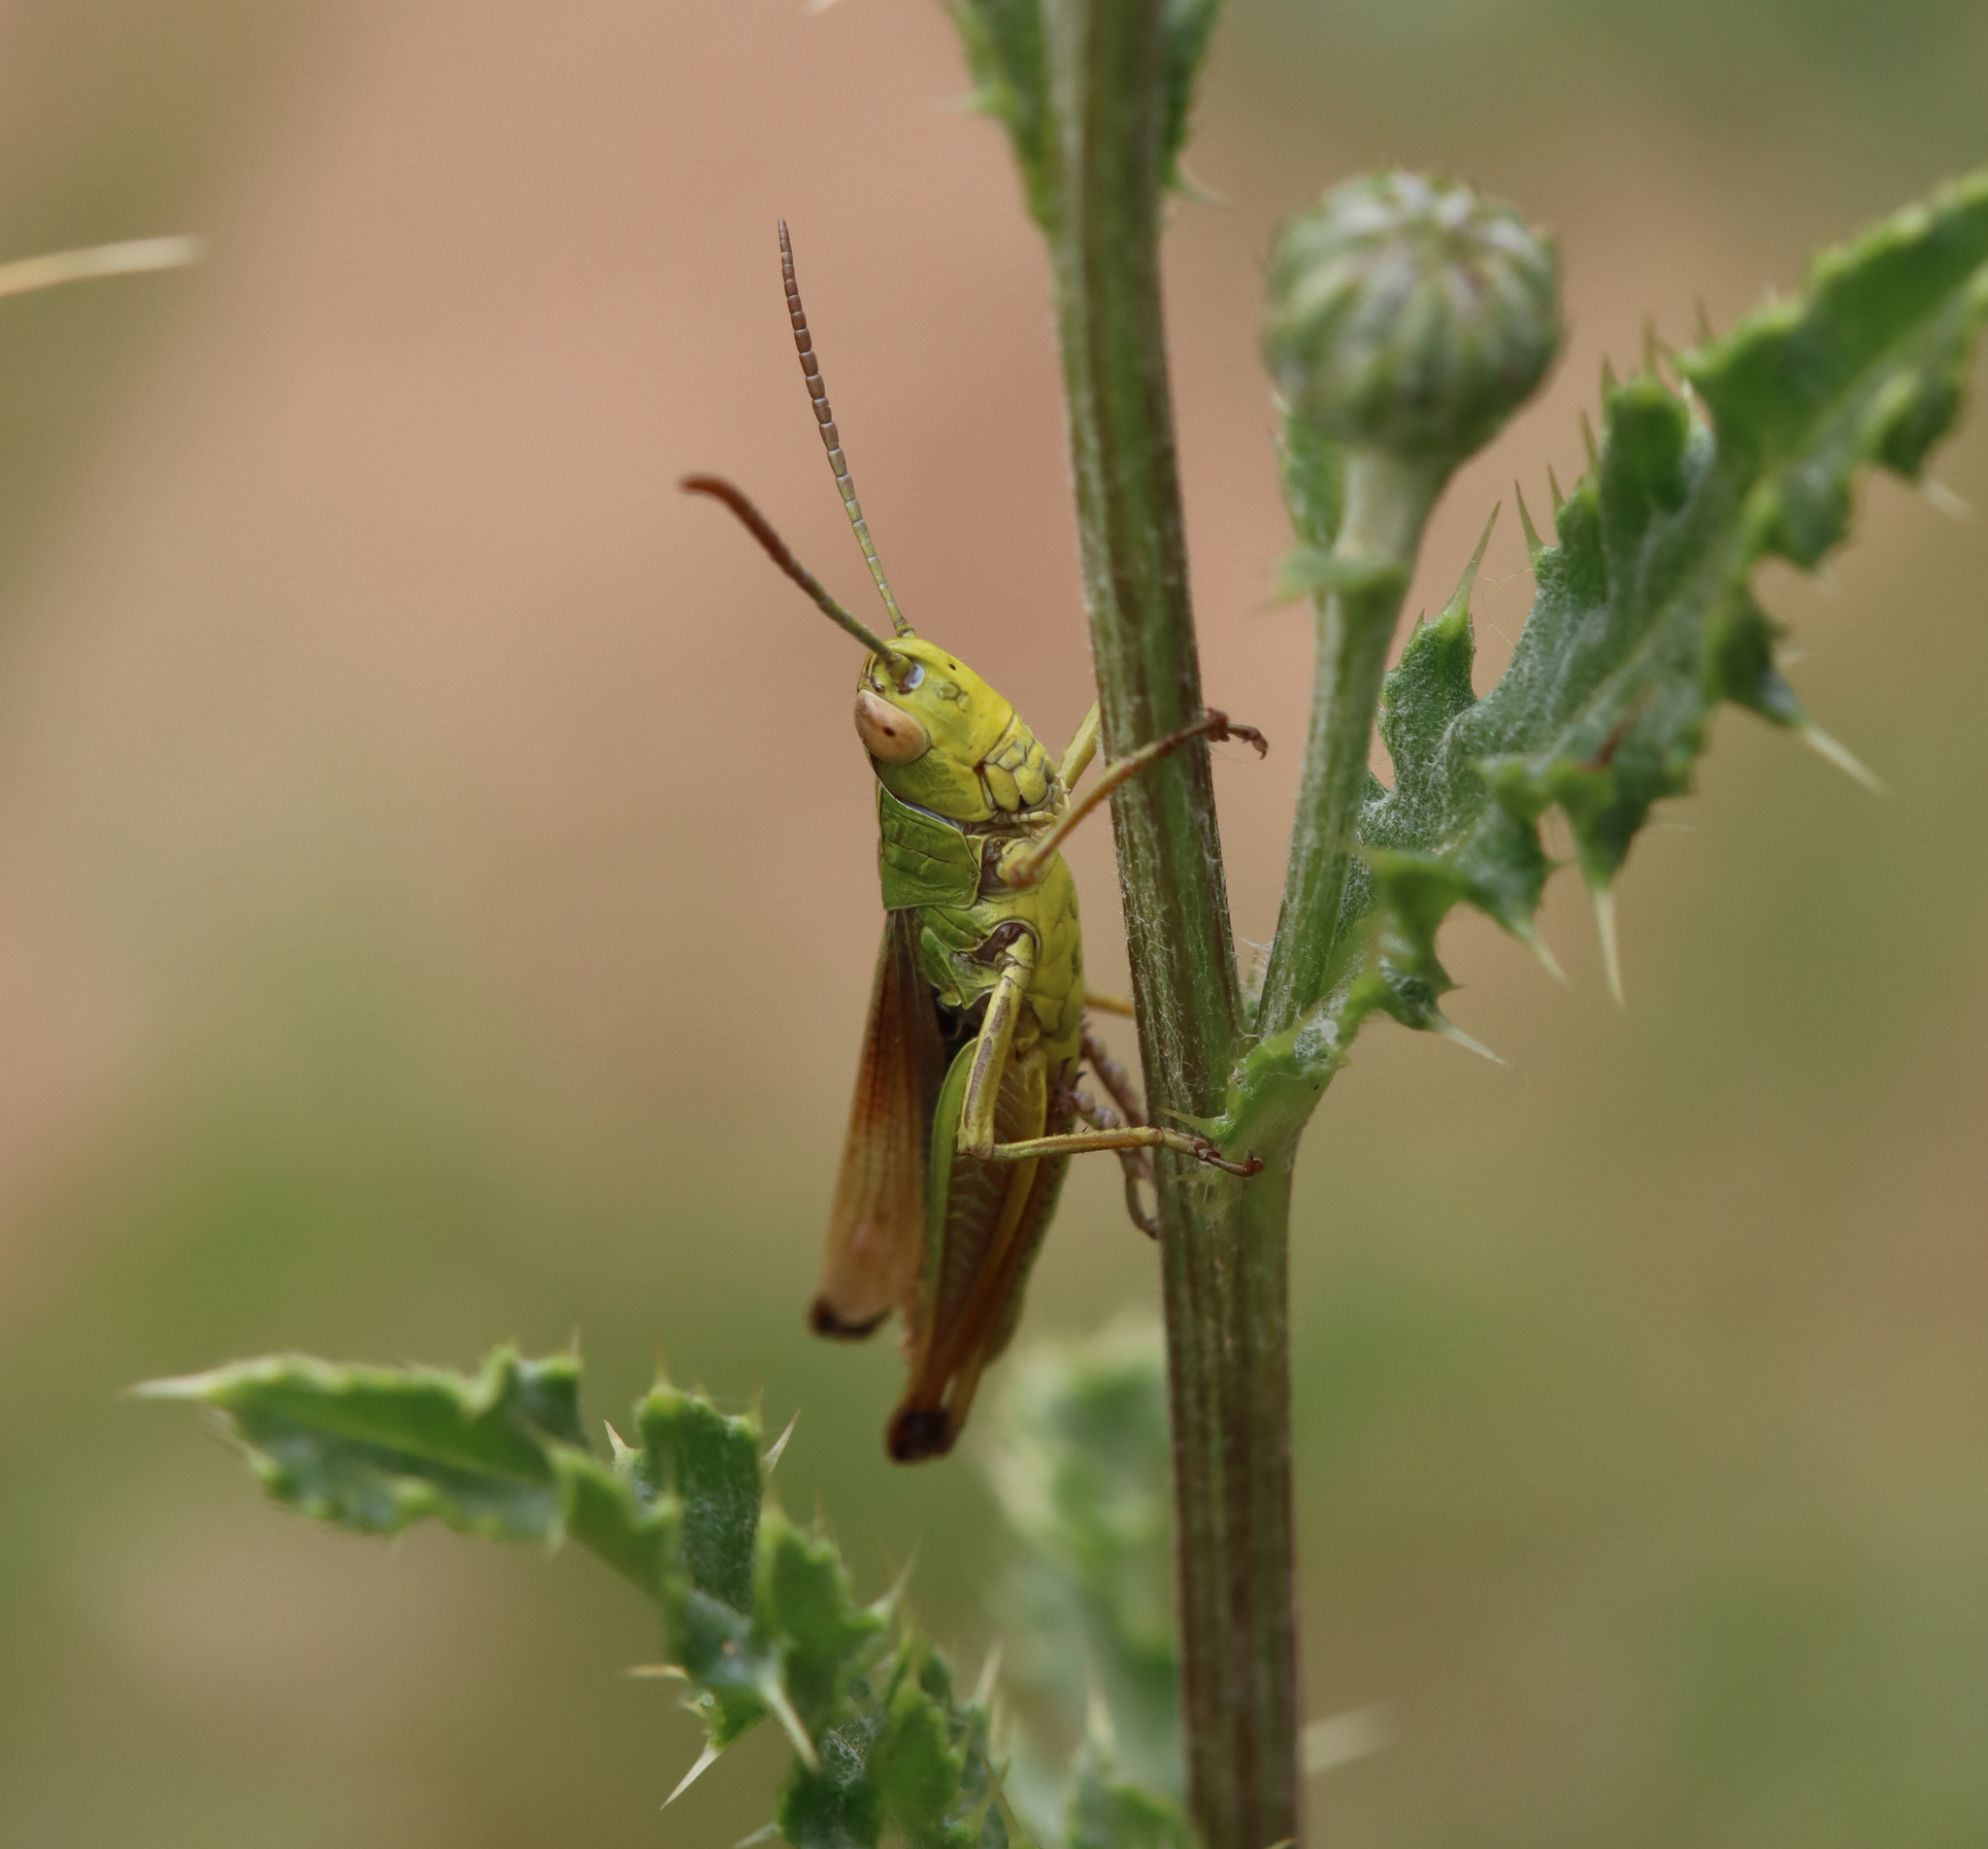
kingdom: Animalia
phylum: Arthropoda
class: Insecta
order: Orthoptera
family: Acrididae
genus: Pseudochorthippus
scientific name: Pseudochorthippus parallelus
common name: Meadow grasshopper
